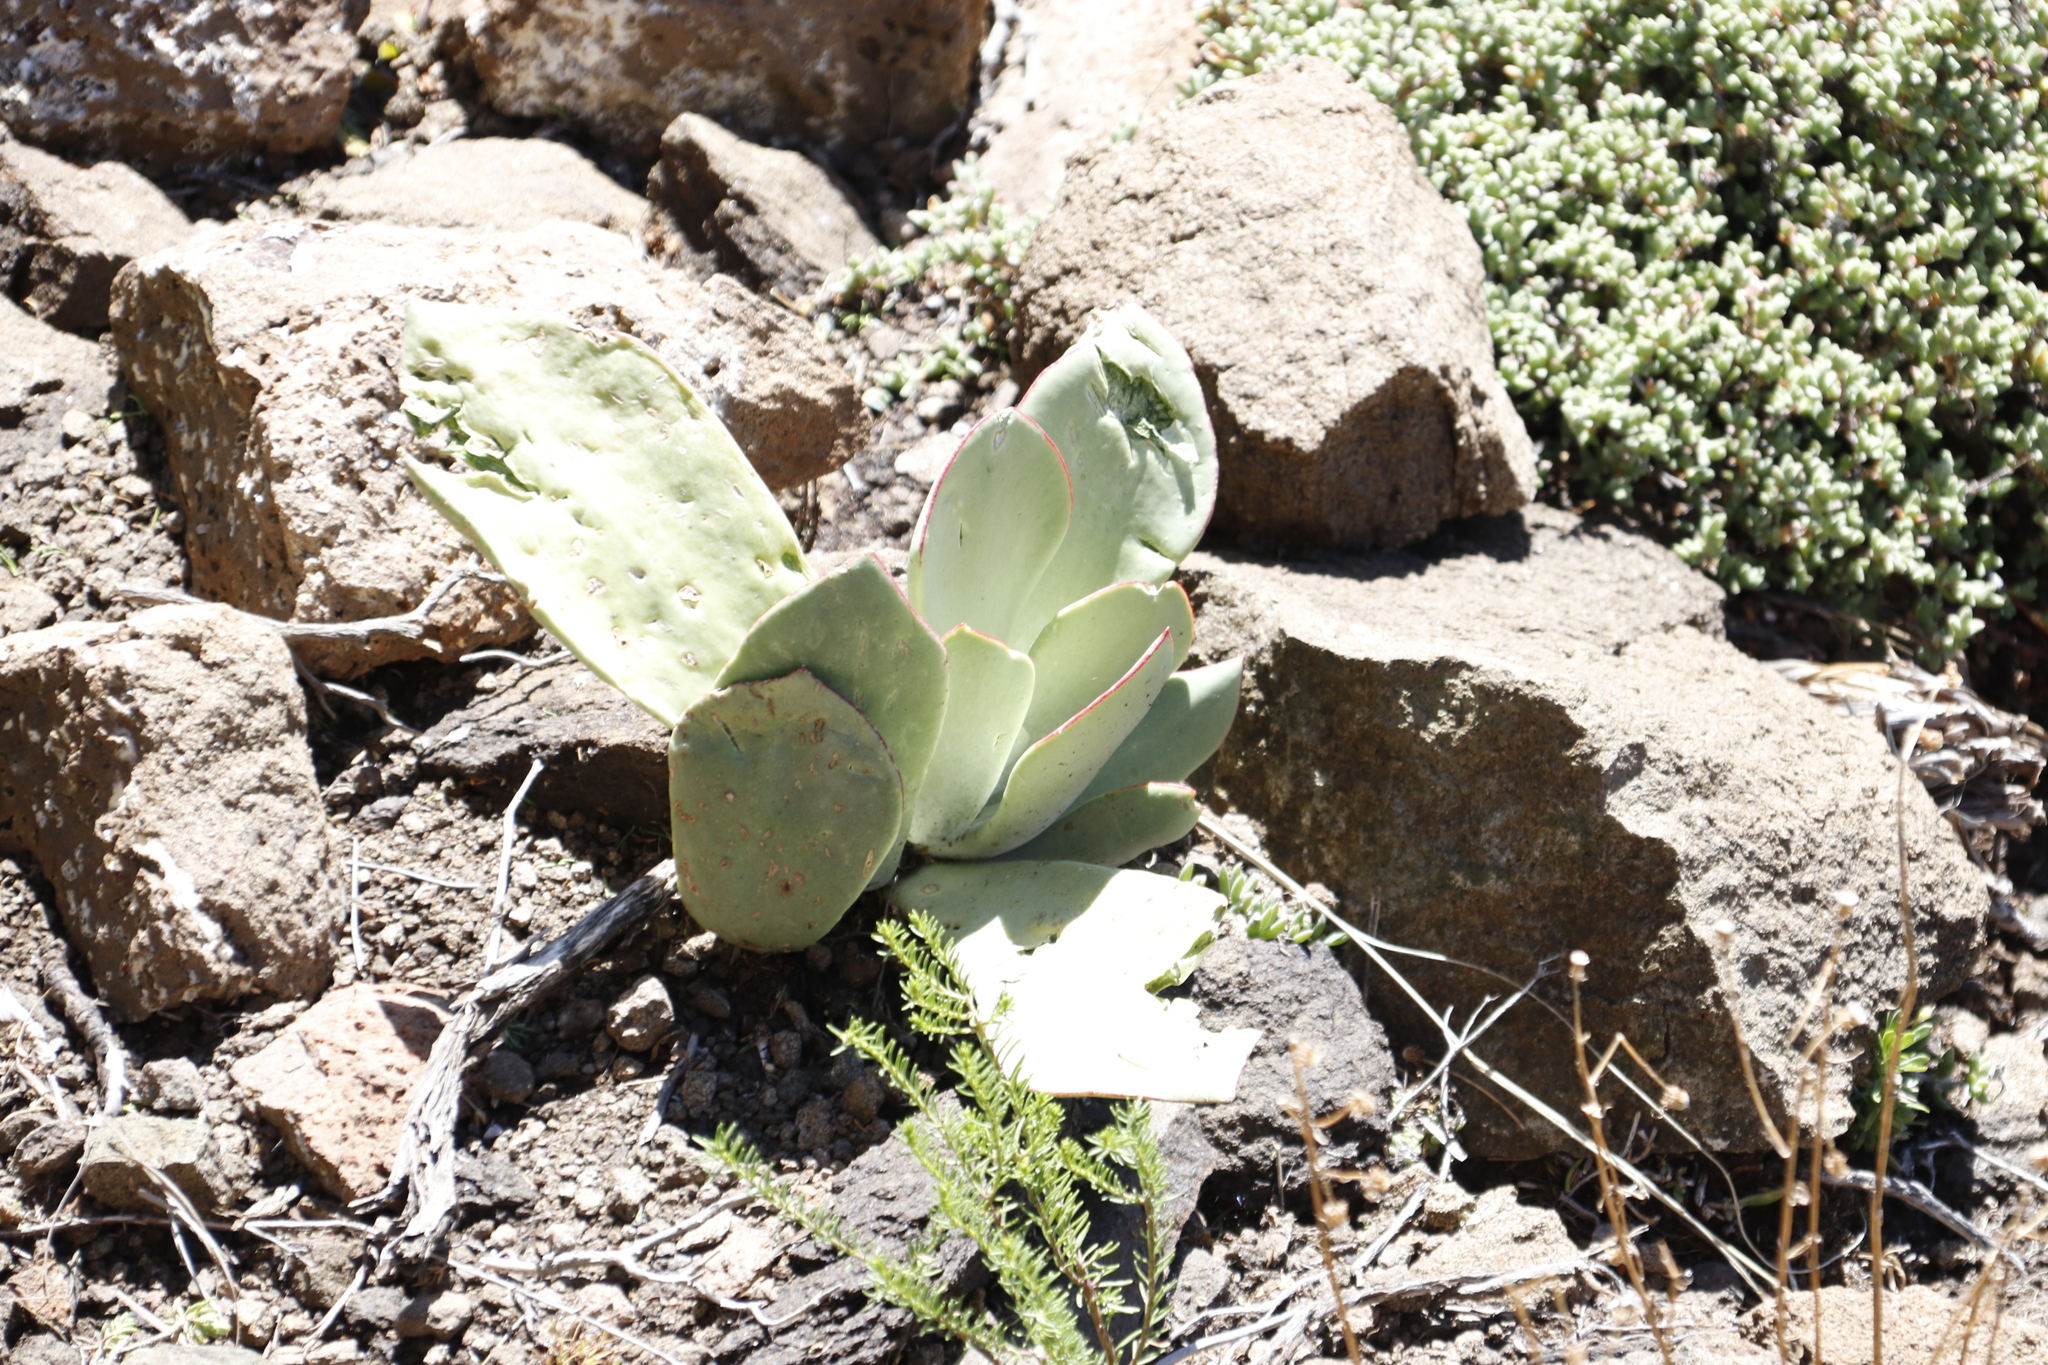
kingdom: Plantae
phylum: Tracheophyta
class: Magnoliopsida
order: Saxifragales
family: Crassulaceae
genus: Cotyledon
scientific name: Cotyledon orbiculata
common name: Pig's ear
